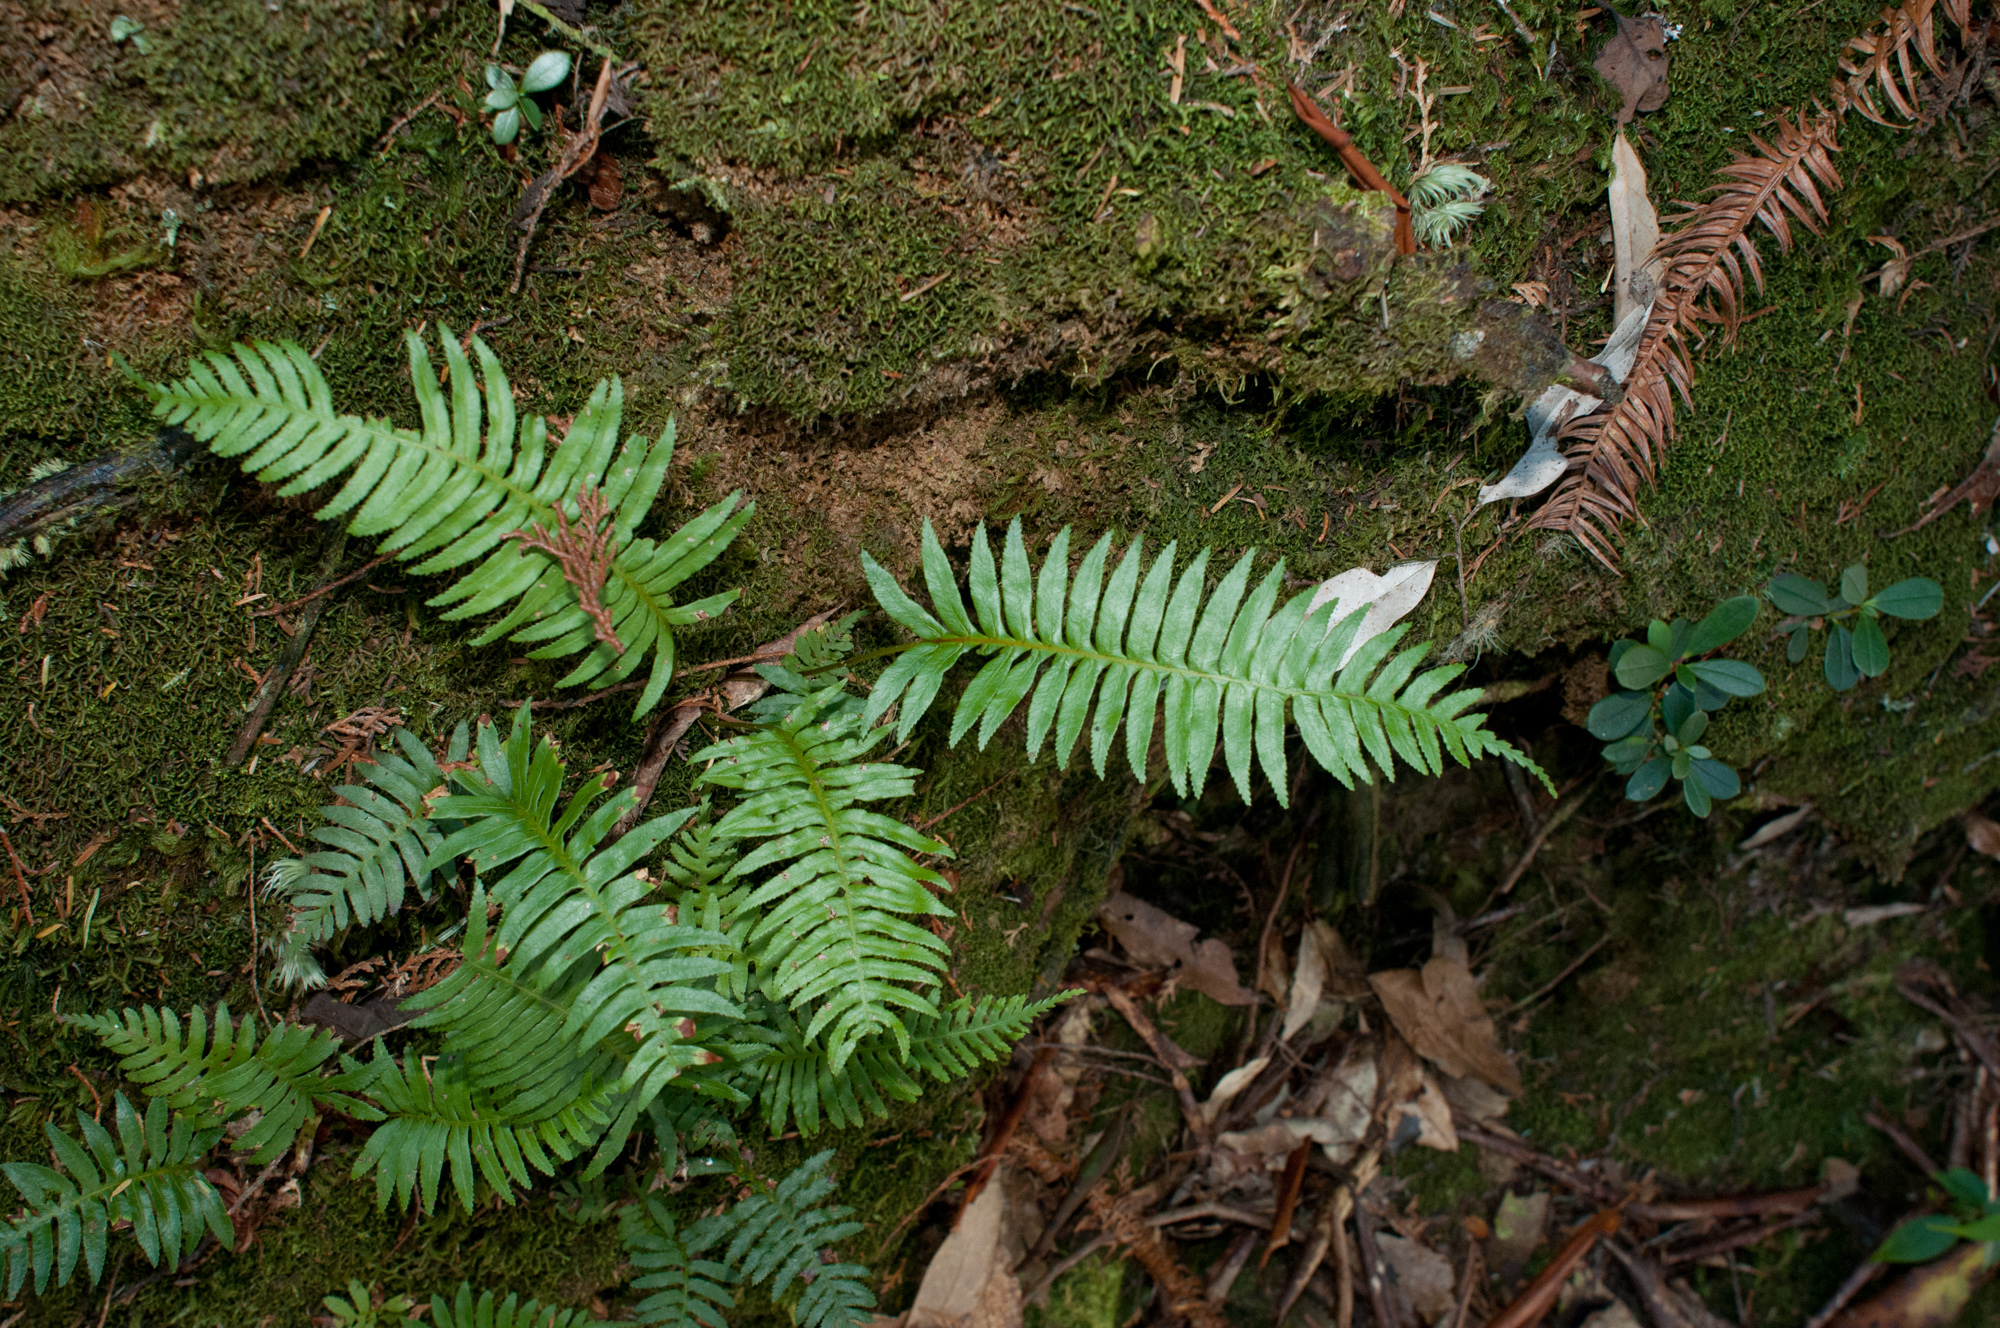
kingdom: Plantae
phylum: Tracheophyta
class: Polypodiopsida
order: Cyatheales
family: Plagiogyriaceae
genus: Plagiogyria
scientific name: Plagiogyria falcata
